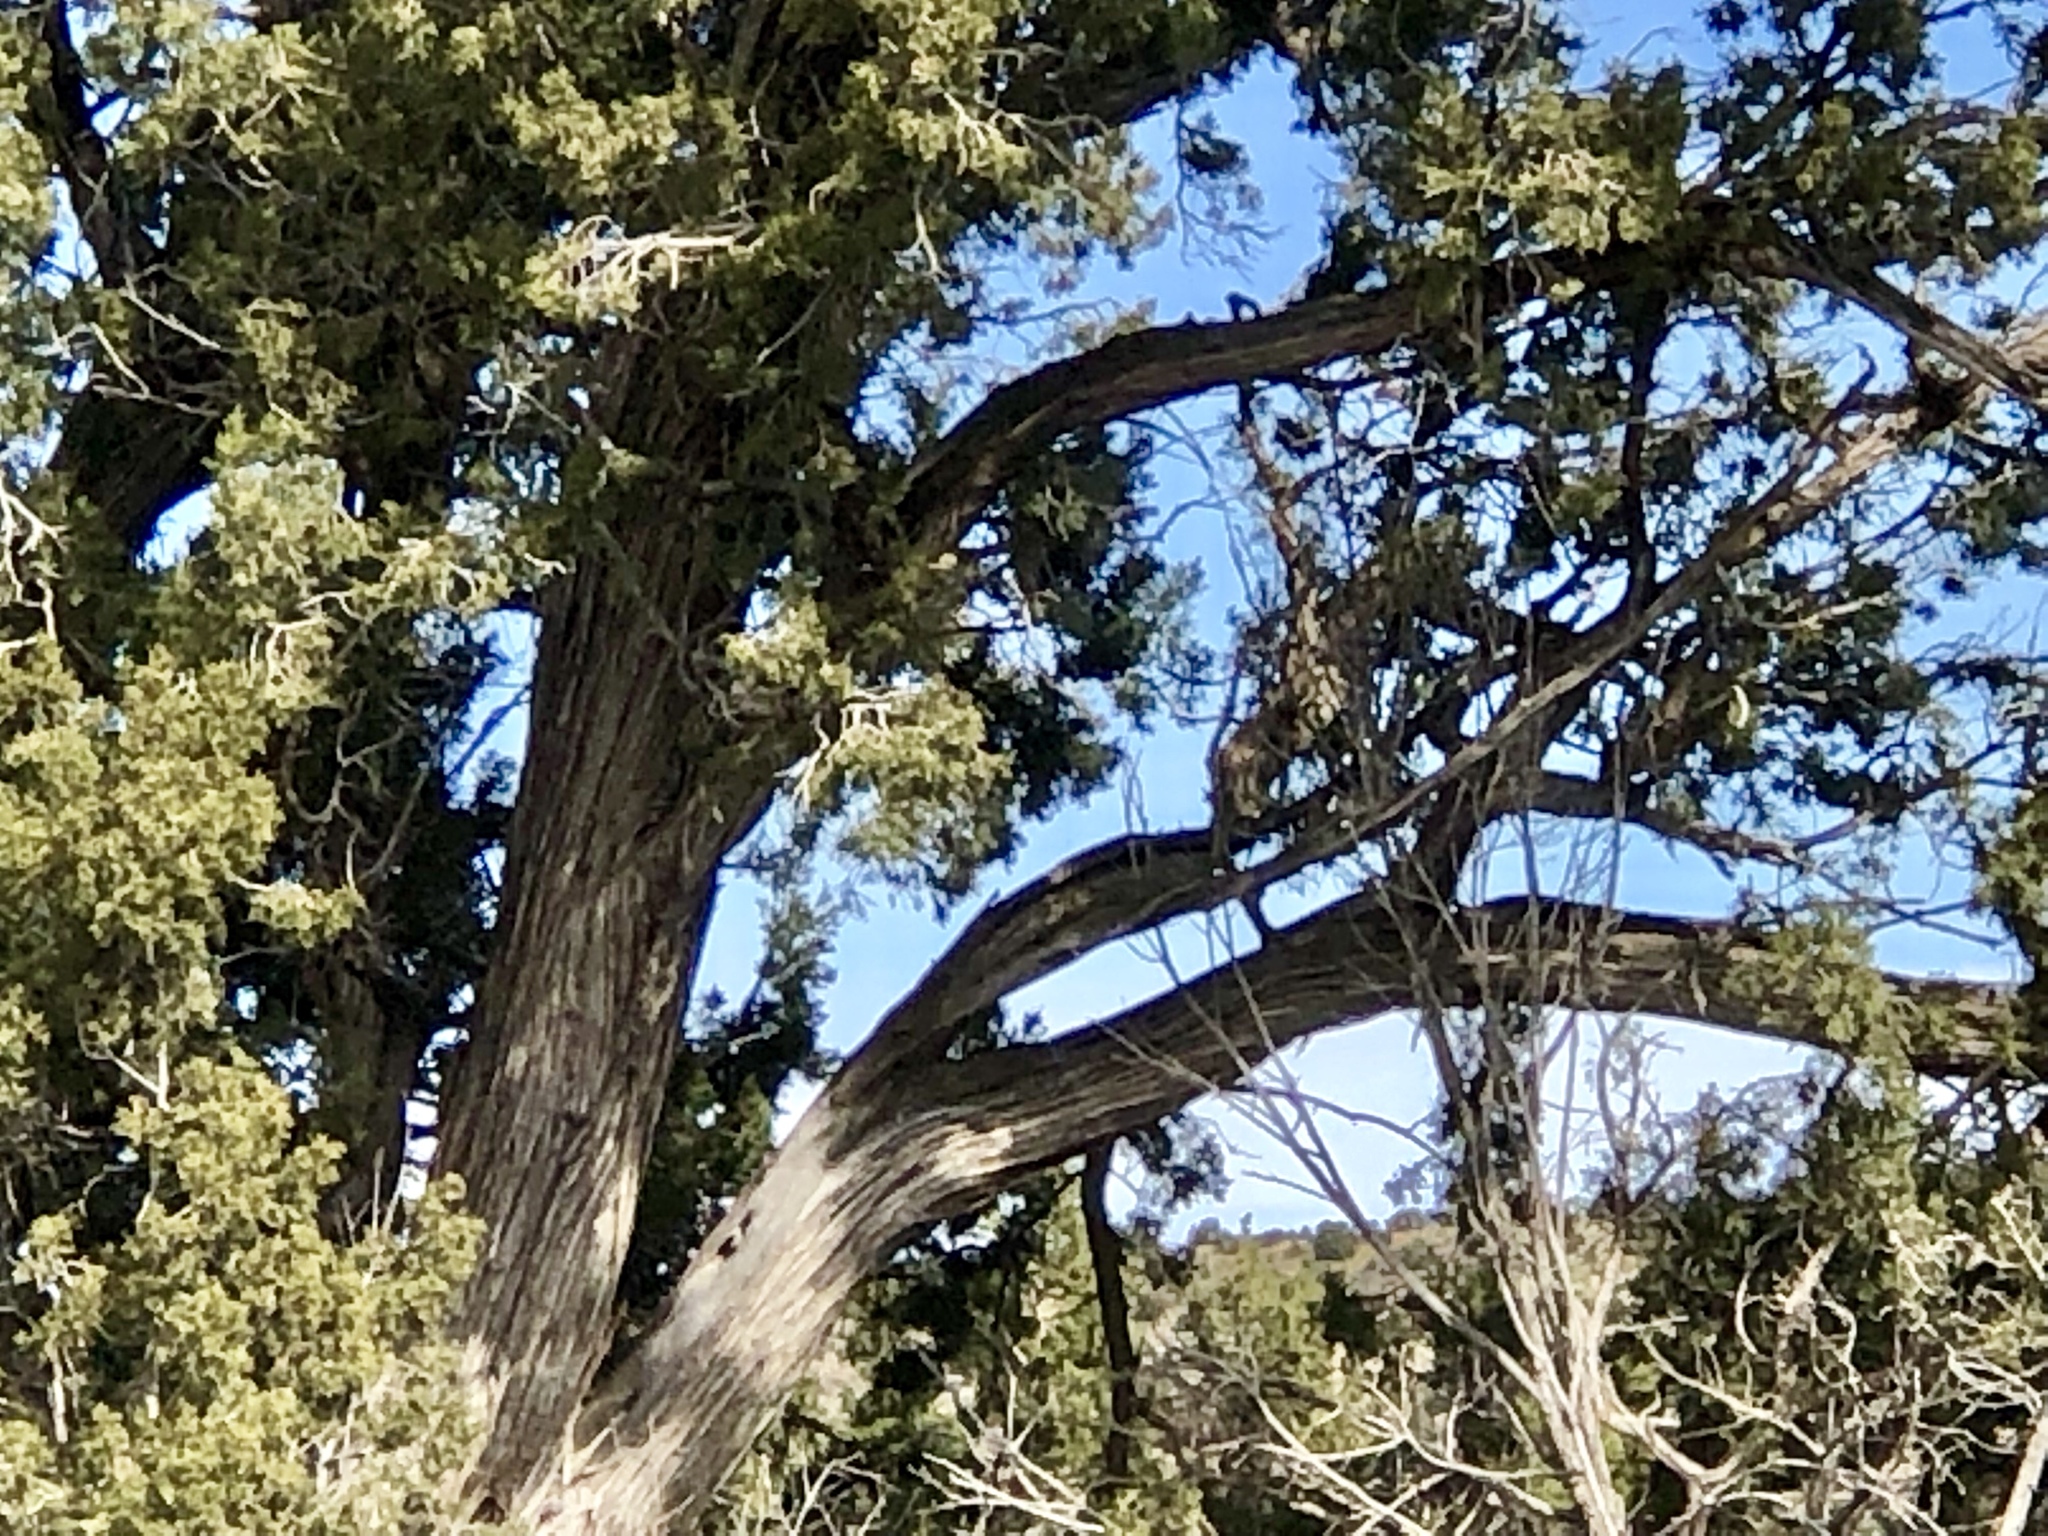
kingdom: Plantae
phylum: Tracheophyta
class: Pinopsida
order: Pinales
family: Cupressaceae
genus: Juniperus
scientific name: Juniperus monosperma
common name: One-seed juniper
